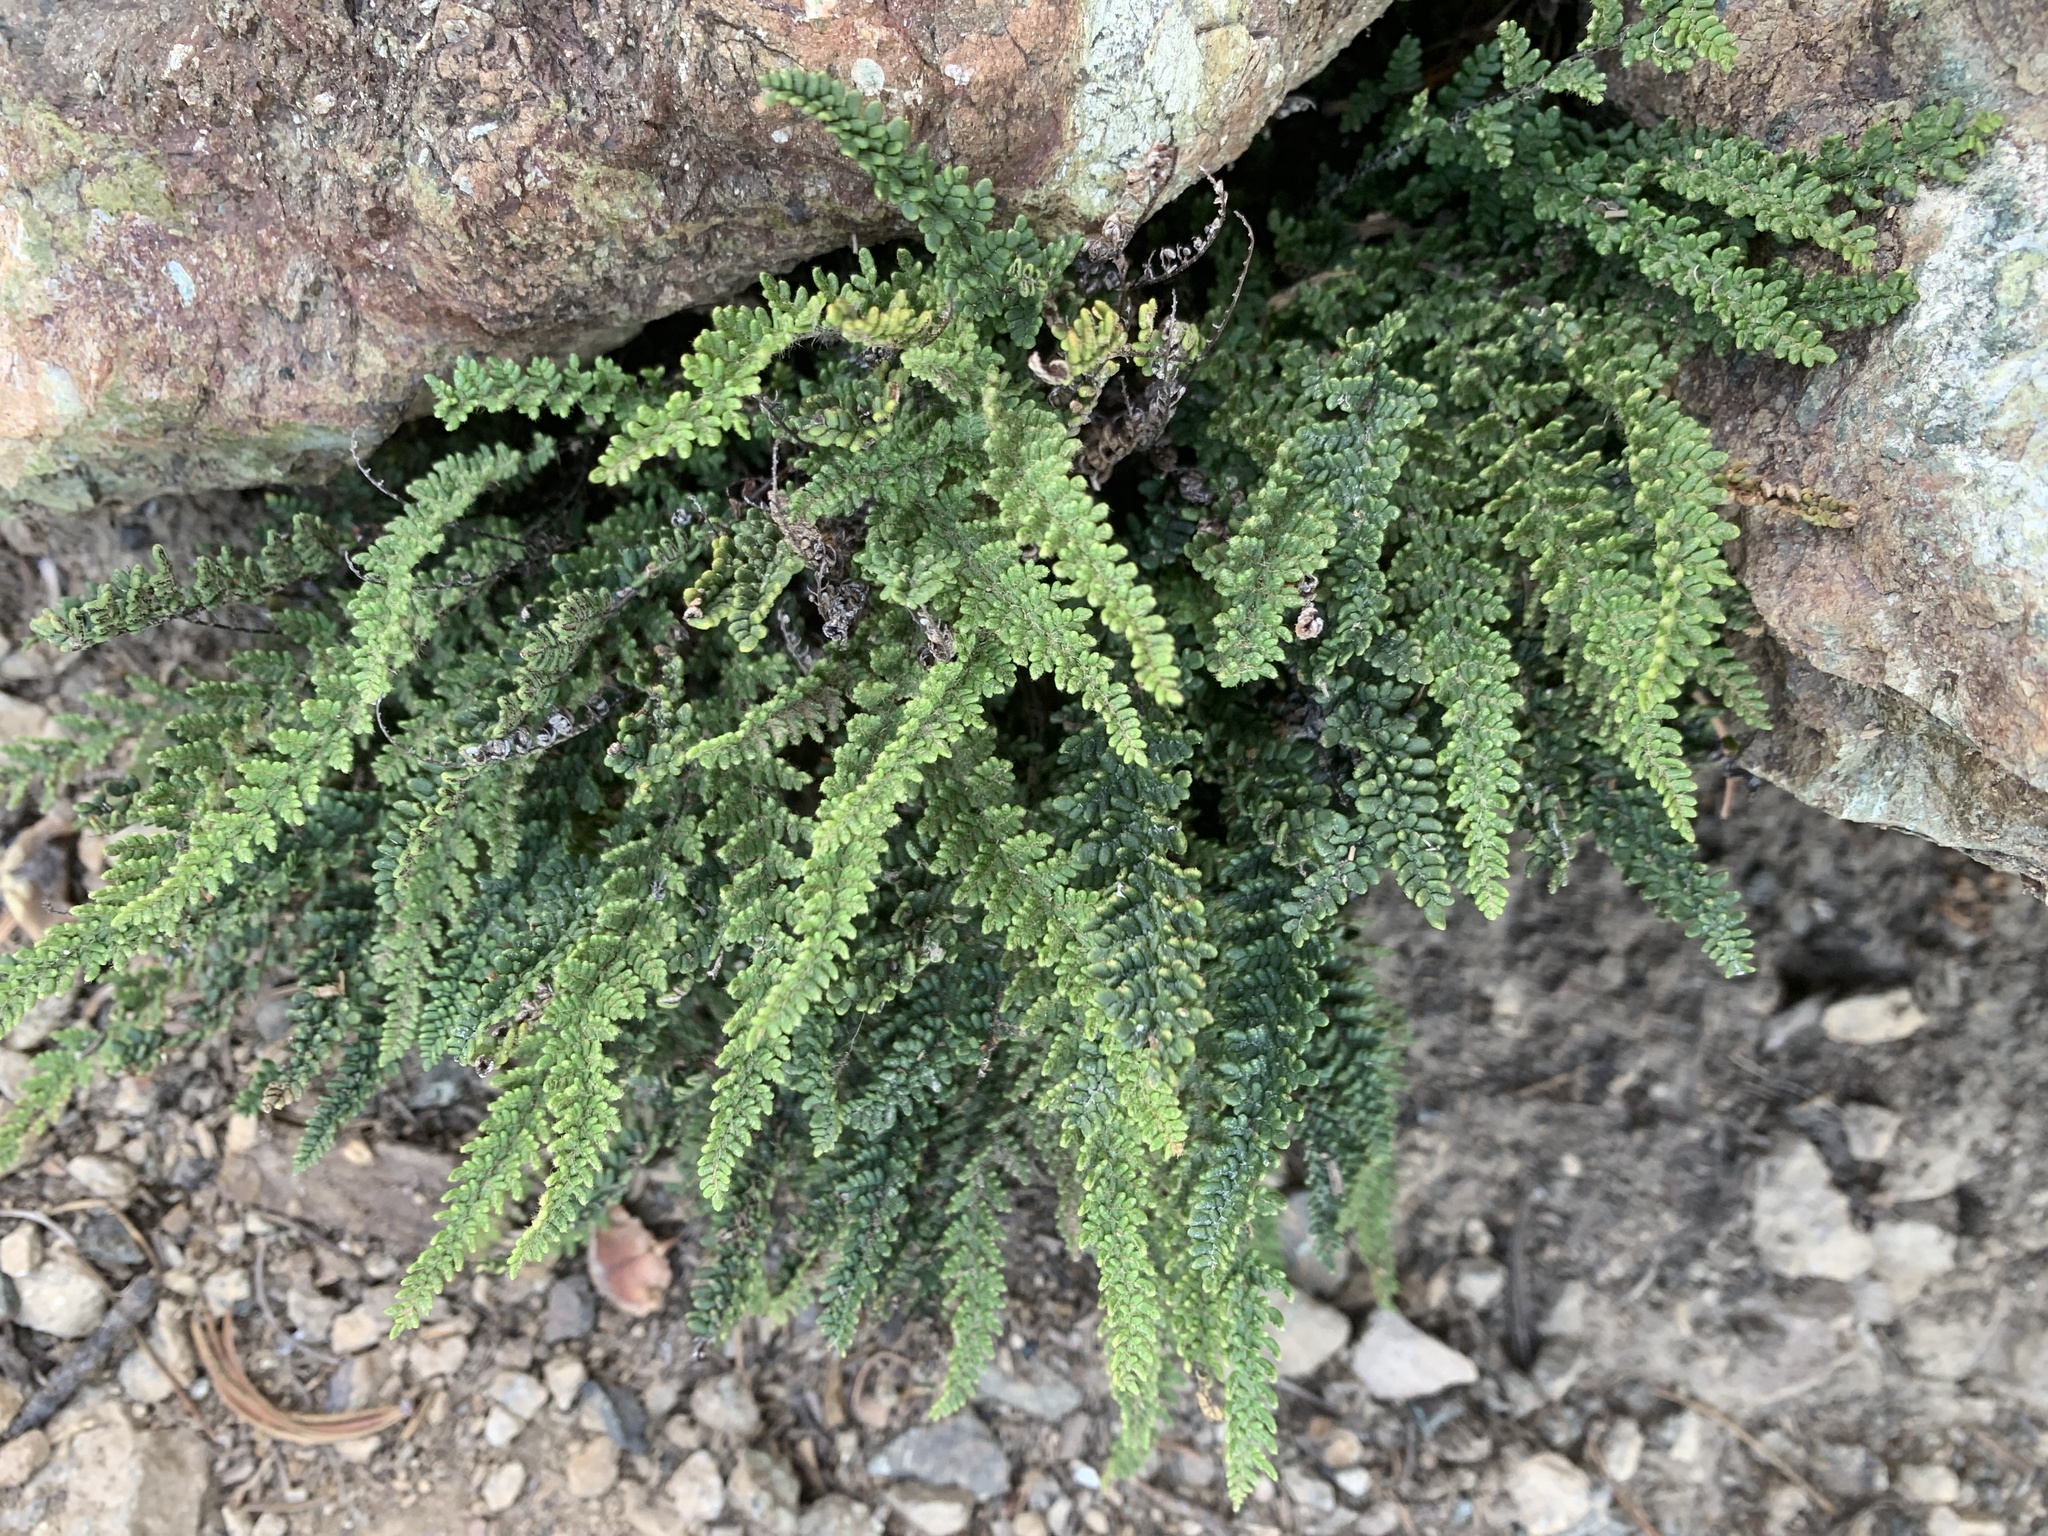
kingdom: Plantae
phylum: Tracheophyta
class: Polypodiopsida
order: Polypodiales
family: Pteridaceae
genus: Myriopteris
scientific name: Myriopteris gracillima
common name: Lace fern
